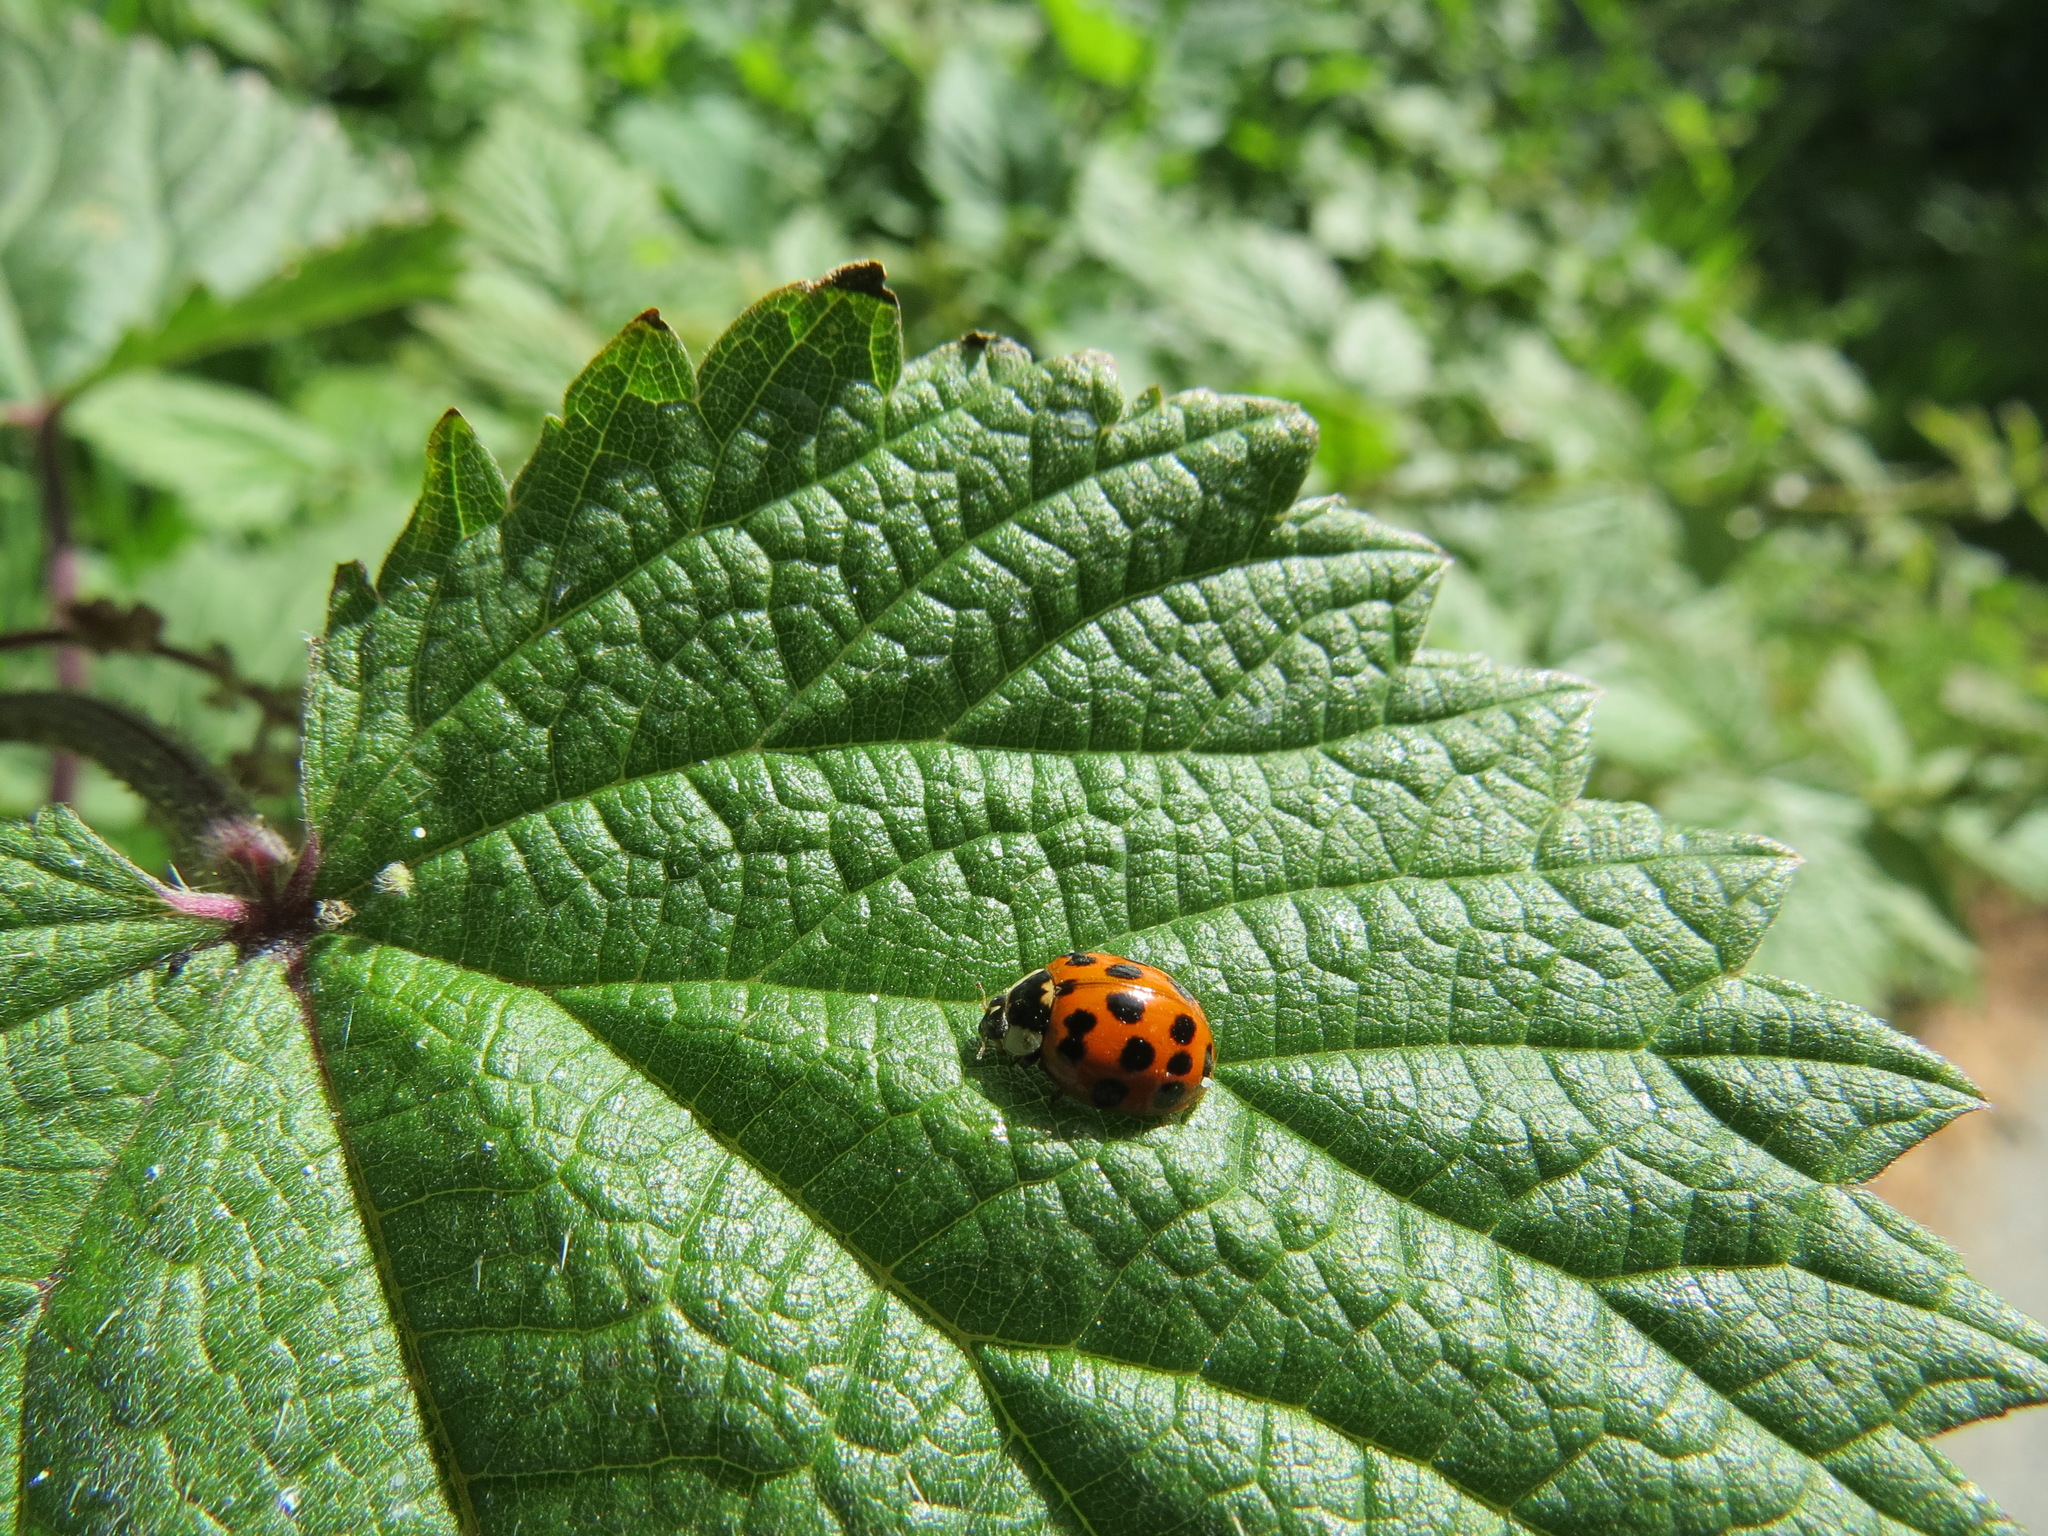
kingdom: Animalia
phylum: Arthropoda
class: Insecta
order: Coleoptera
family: Coccinellidae
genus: Harmonia
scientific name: Harmonia axyridis
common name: Harlequin ladybird
